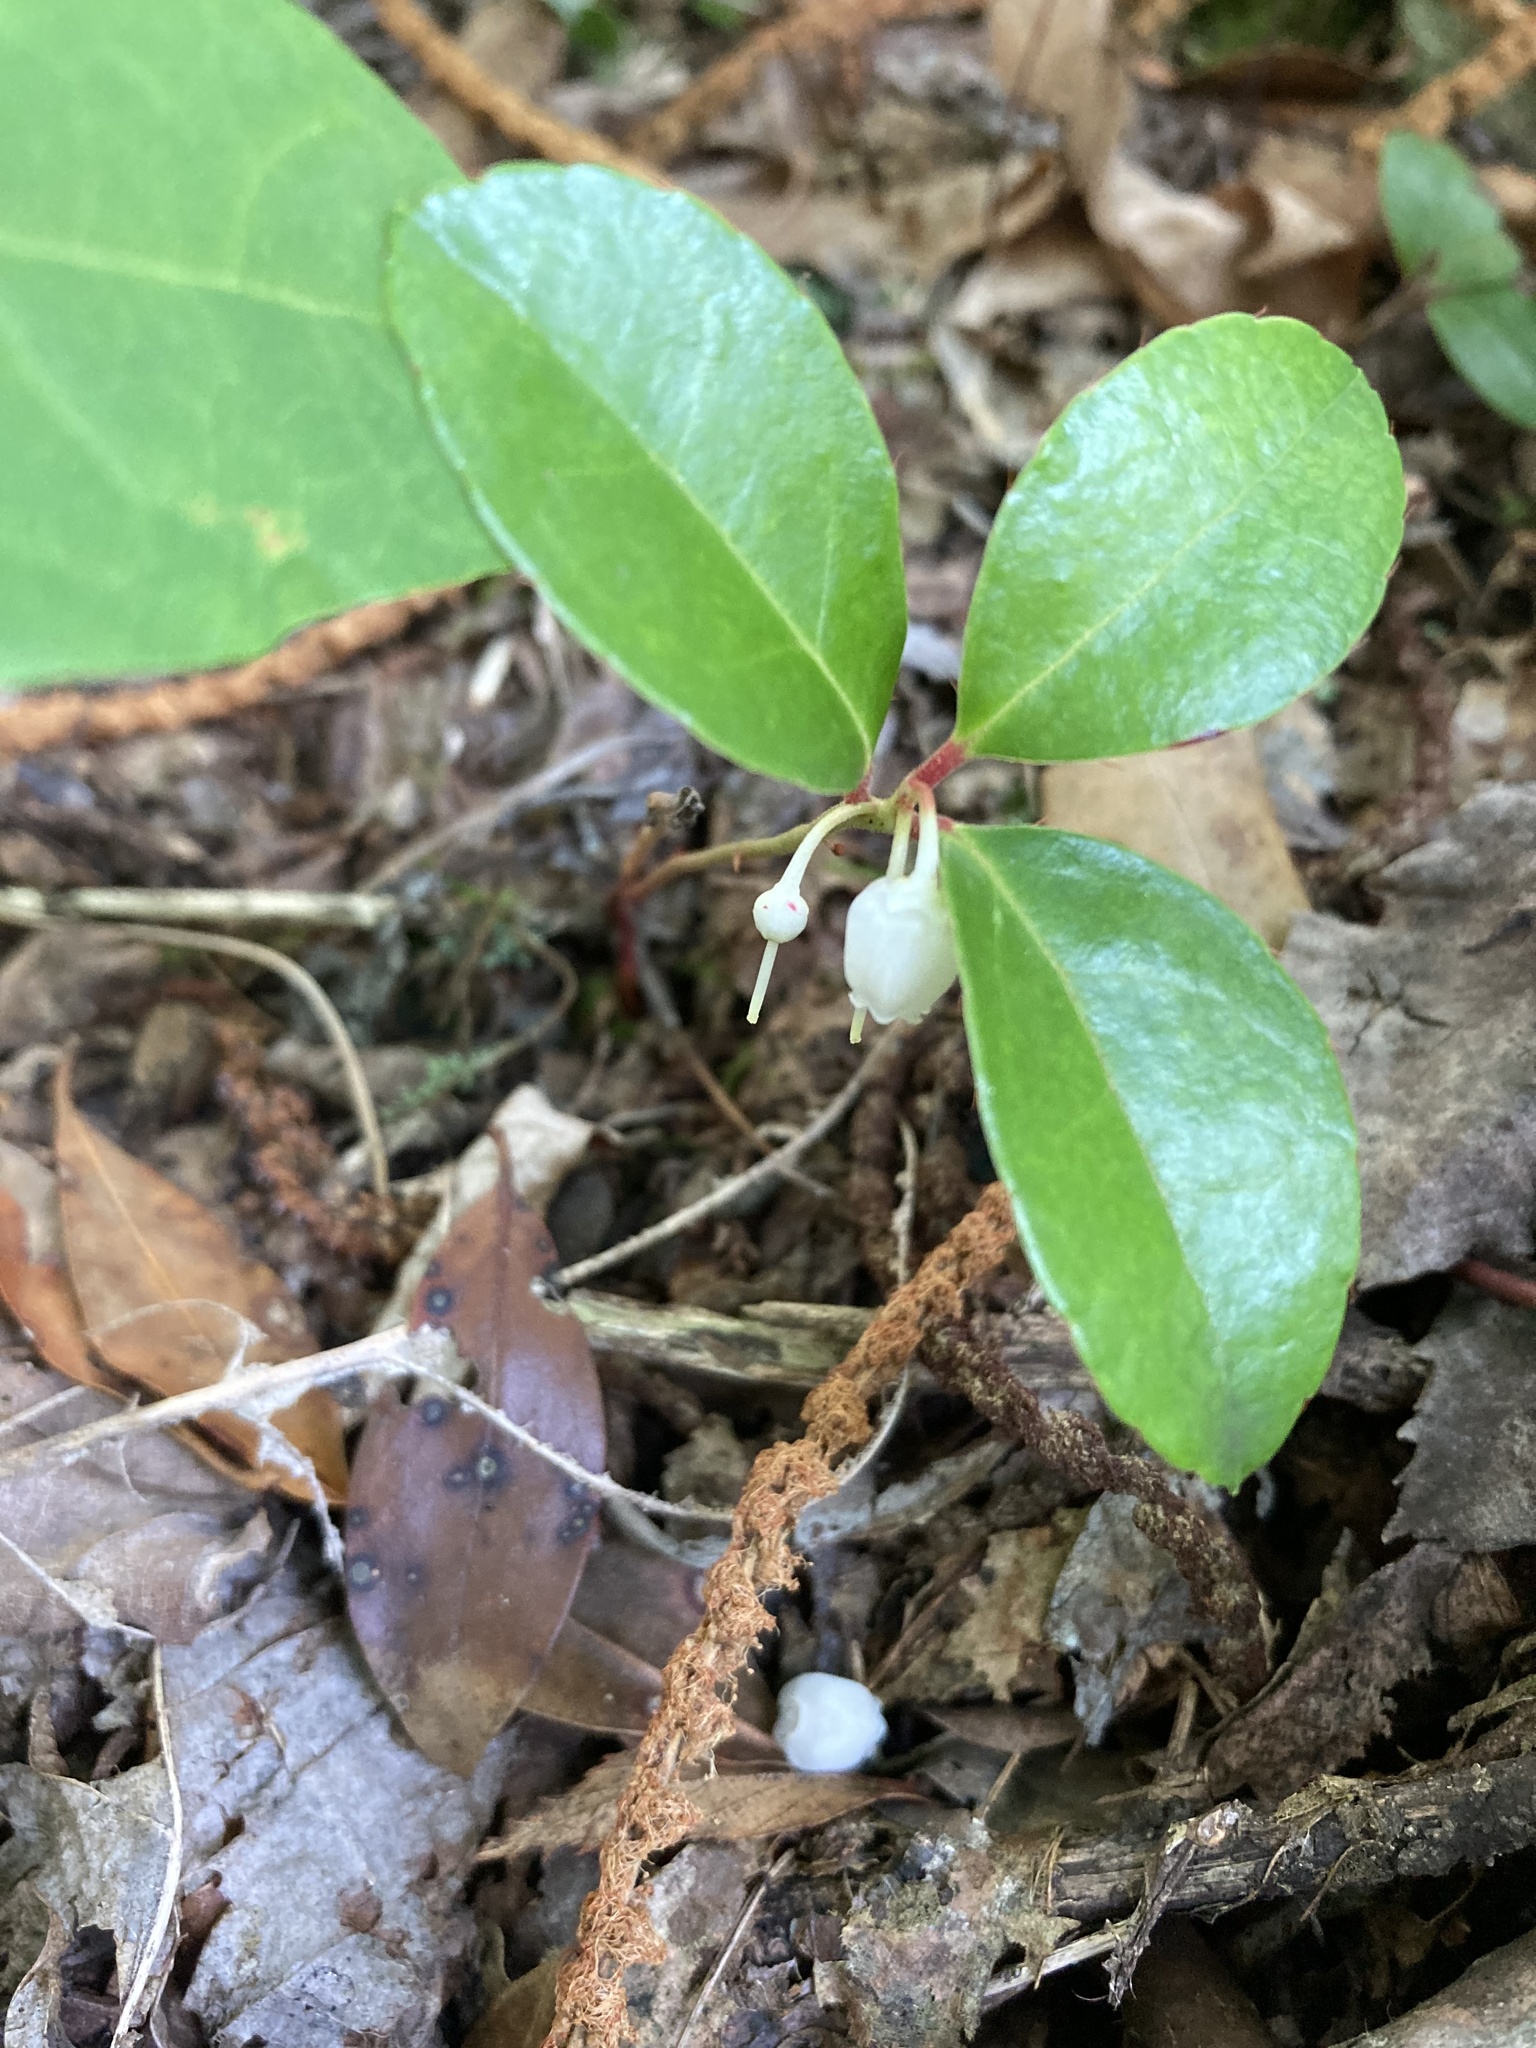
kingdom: Plantae
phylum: Tracheophyta
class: Magnoliopsida
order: Ericales
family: Ericaceae
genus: Gaultheria
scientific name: Gaultheria procumbens
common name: Checkerberry
